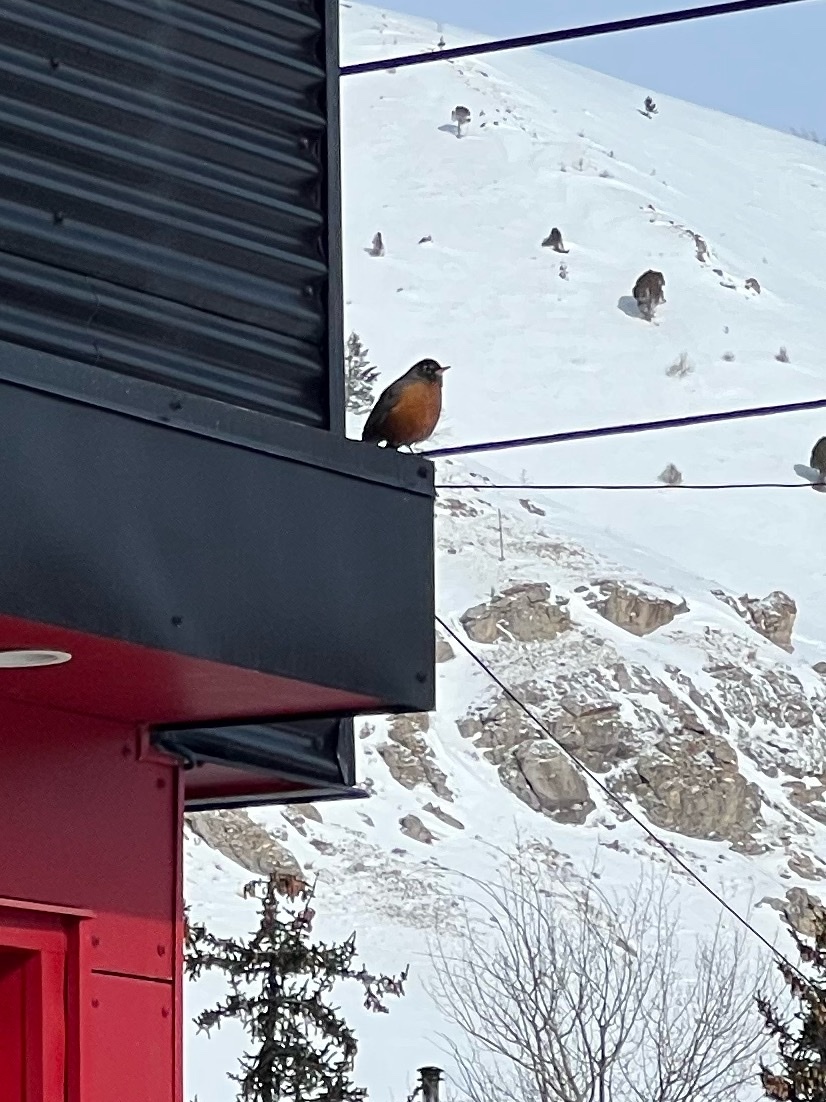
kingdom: Animalia
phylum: Chordata
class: Aves
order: Passeriformes
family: Turdidae
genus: Turdus
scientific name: Turdus migratorius
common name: American robin
